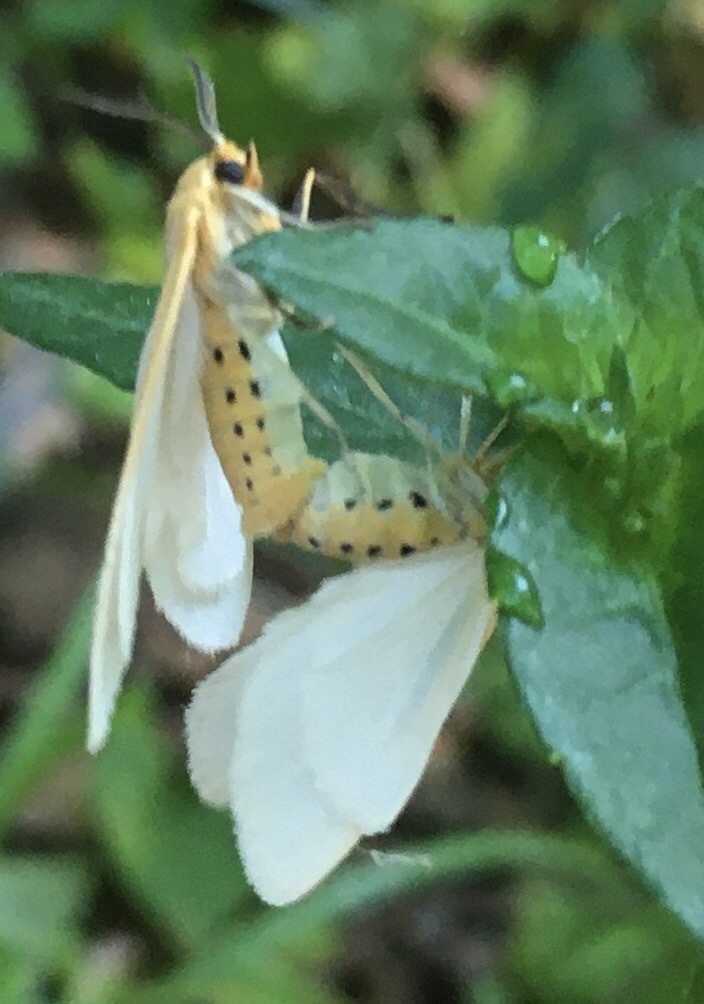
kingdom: Animalia
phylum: Arthropoda
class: Insecta
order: Lepidoptera
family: Erebidae
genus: Cycnia
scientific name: Cycnia tenera
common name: Delicate cycnia moth
